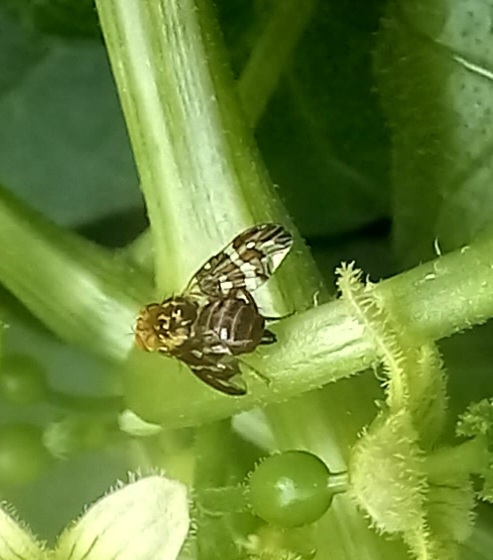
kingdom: Animalia
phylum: Arthropoda
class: Insecta
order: Diptera
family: Tephritidae
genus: Carpomya
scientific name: Carpomya wiedemanni
